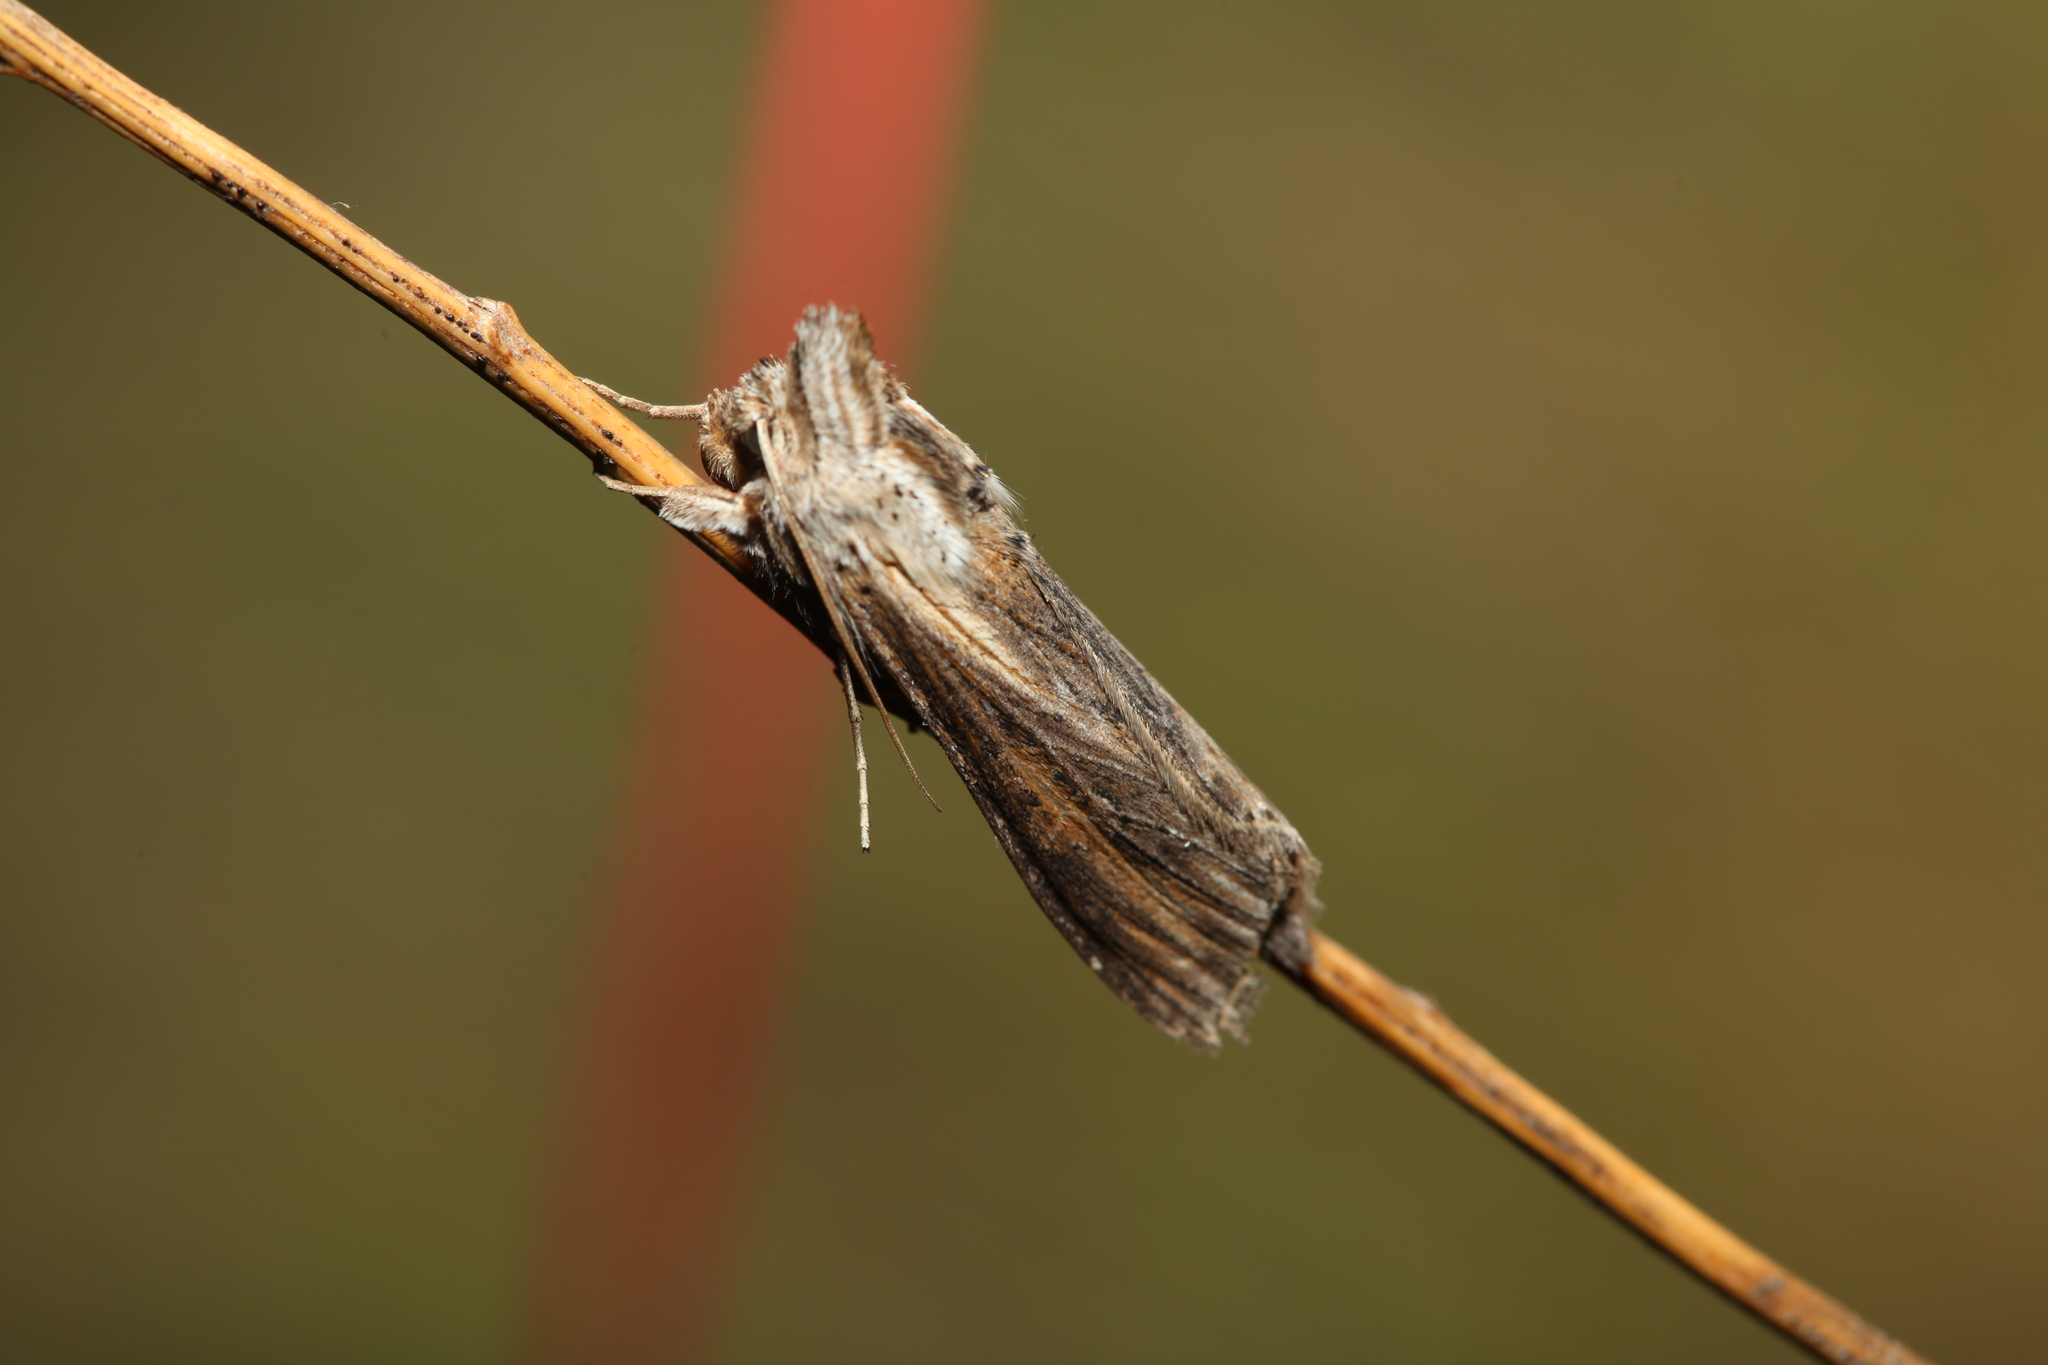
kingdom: Animalia
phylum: Arthropoda
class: Insecta
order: Lepidoptera
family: Noctuidae
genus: Cucullia
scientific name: Cucullia mixta
